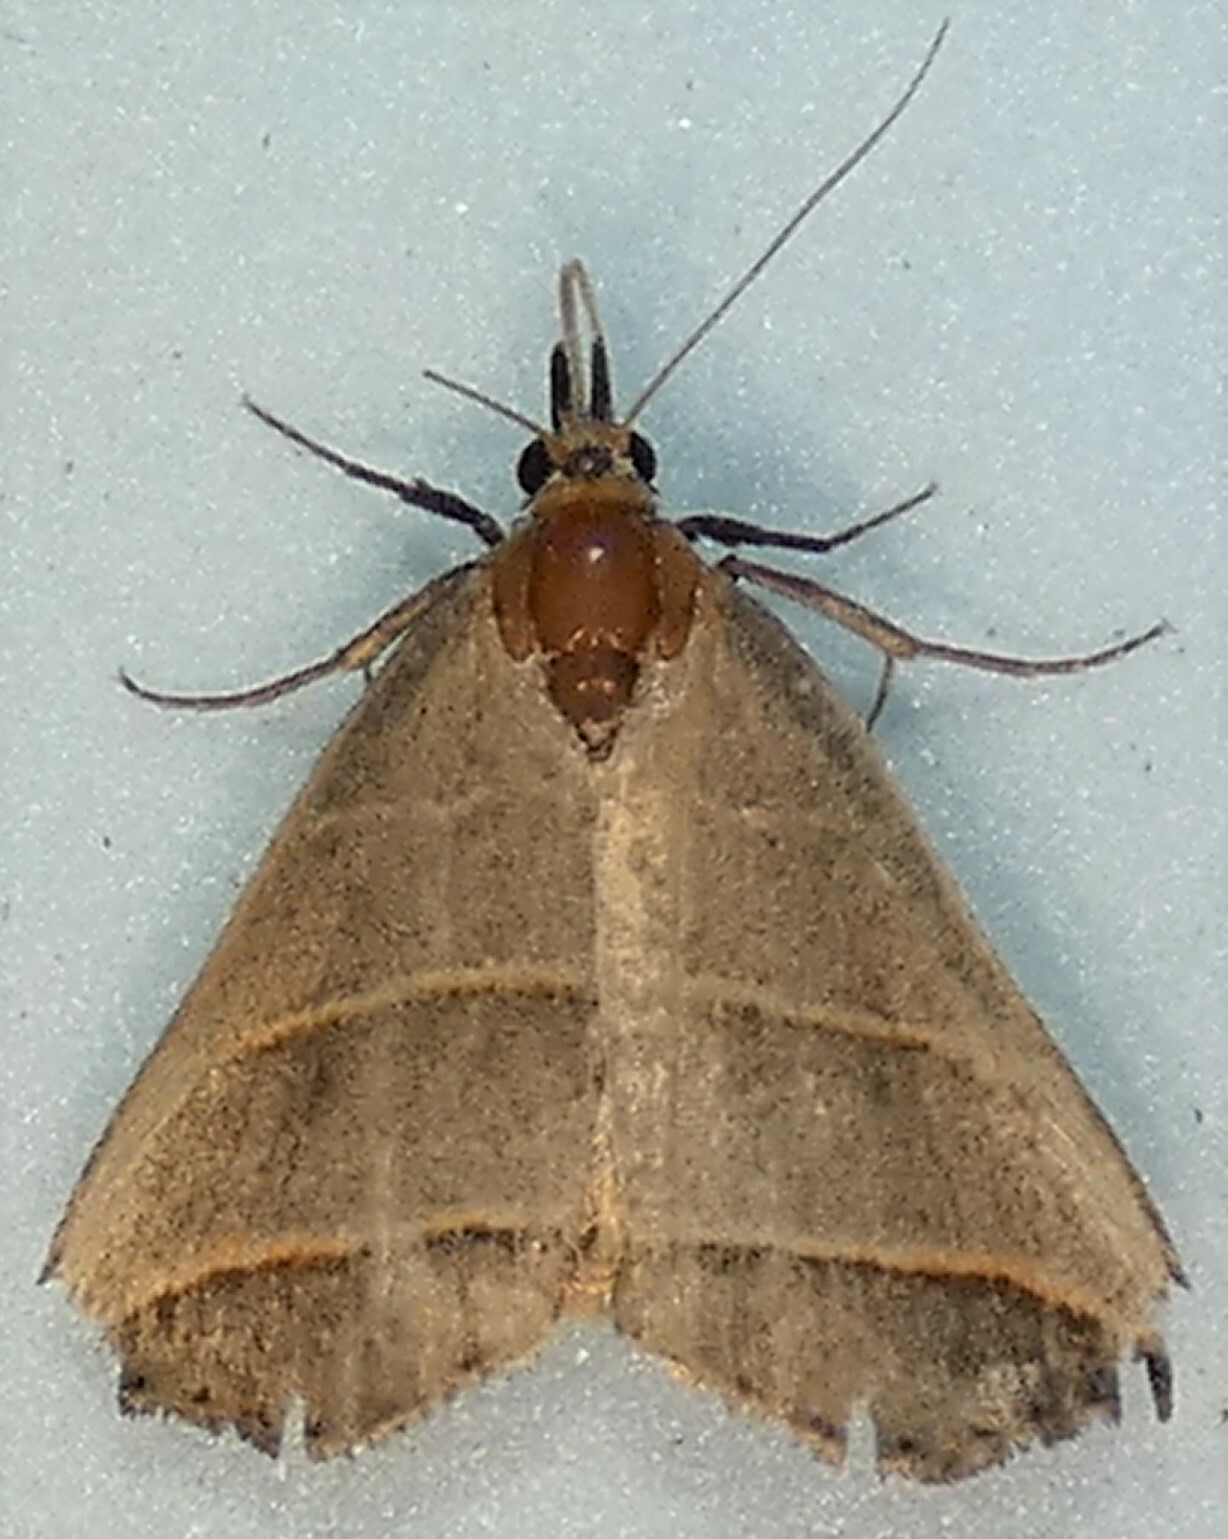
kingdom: Animalia
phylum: Arthropoda
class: Insecta
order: Lepidoptera
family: Erebidae
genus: Colobochyla
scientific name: Colobochyla interpuncta
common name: Yellow-lined owlet
